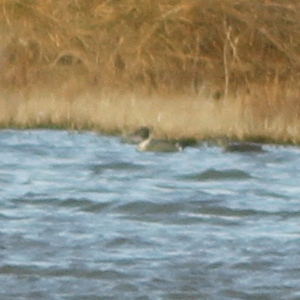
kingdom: Animalia
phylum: Chordata
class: Aves
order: Anseriformes
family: Anatidae
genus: Anas
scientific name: Anas acuta
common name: Northern pintail
